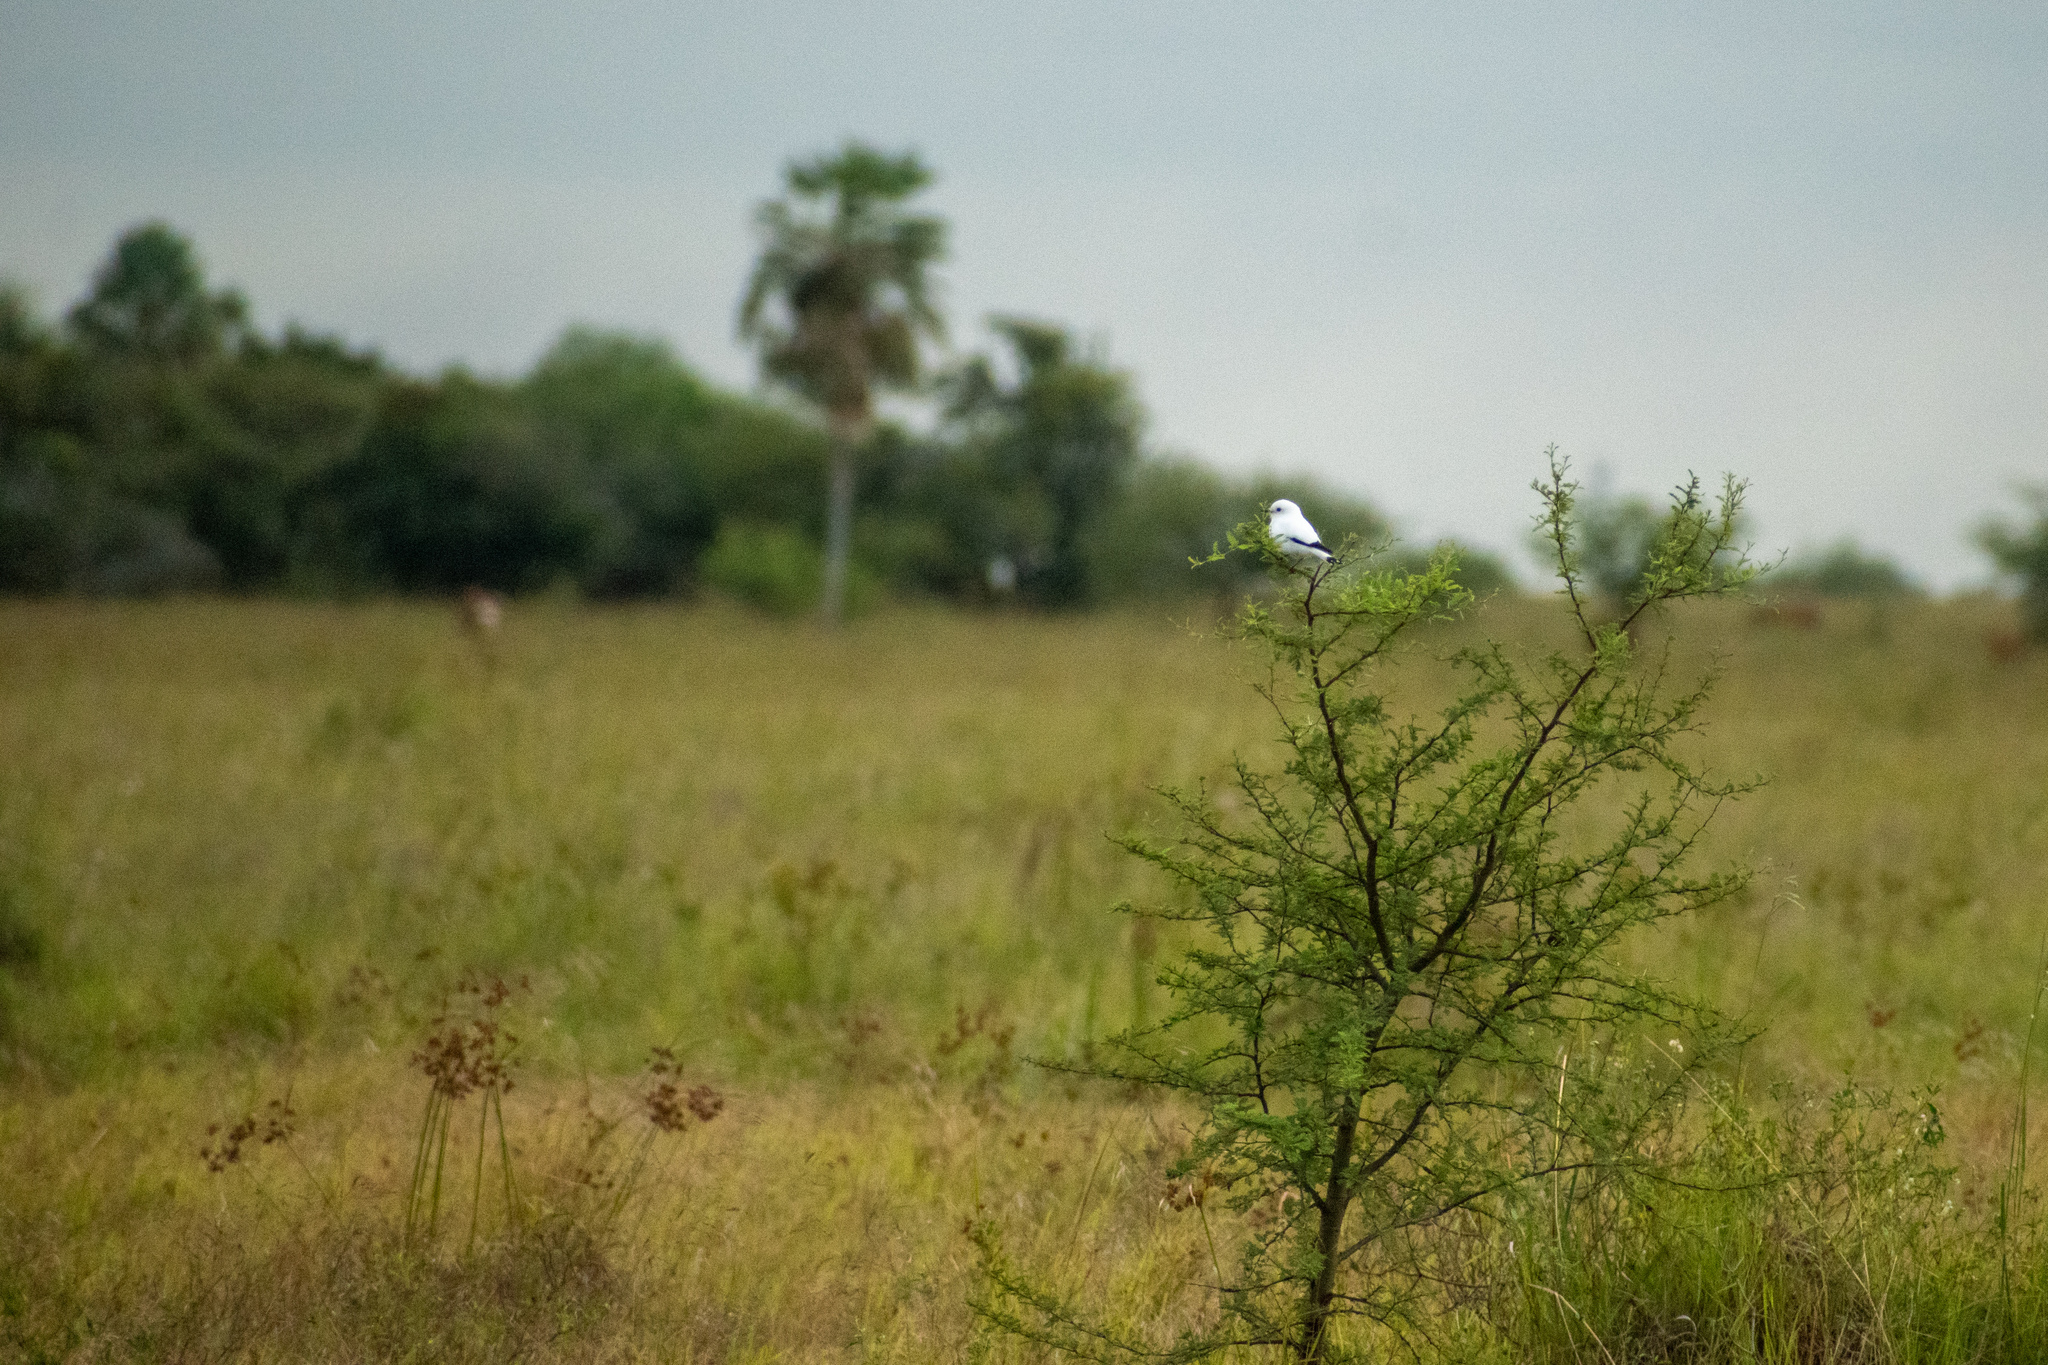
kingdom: Animalia
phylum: Chordata
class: Aves
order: Passeriformes
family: Tyrannidae
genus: Xolmis
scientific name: Xolmis irupero
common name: White monjita
